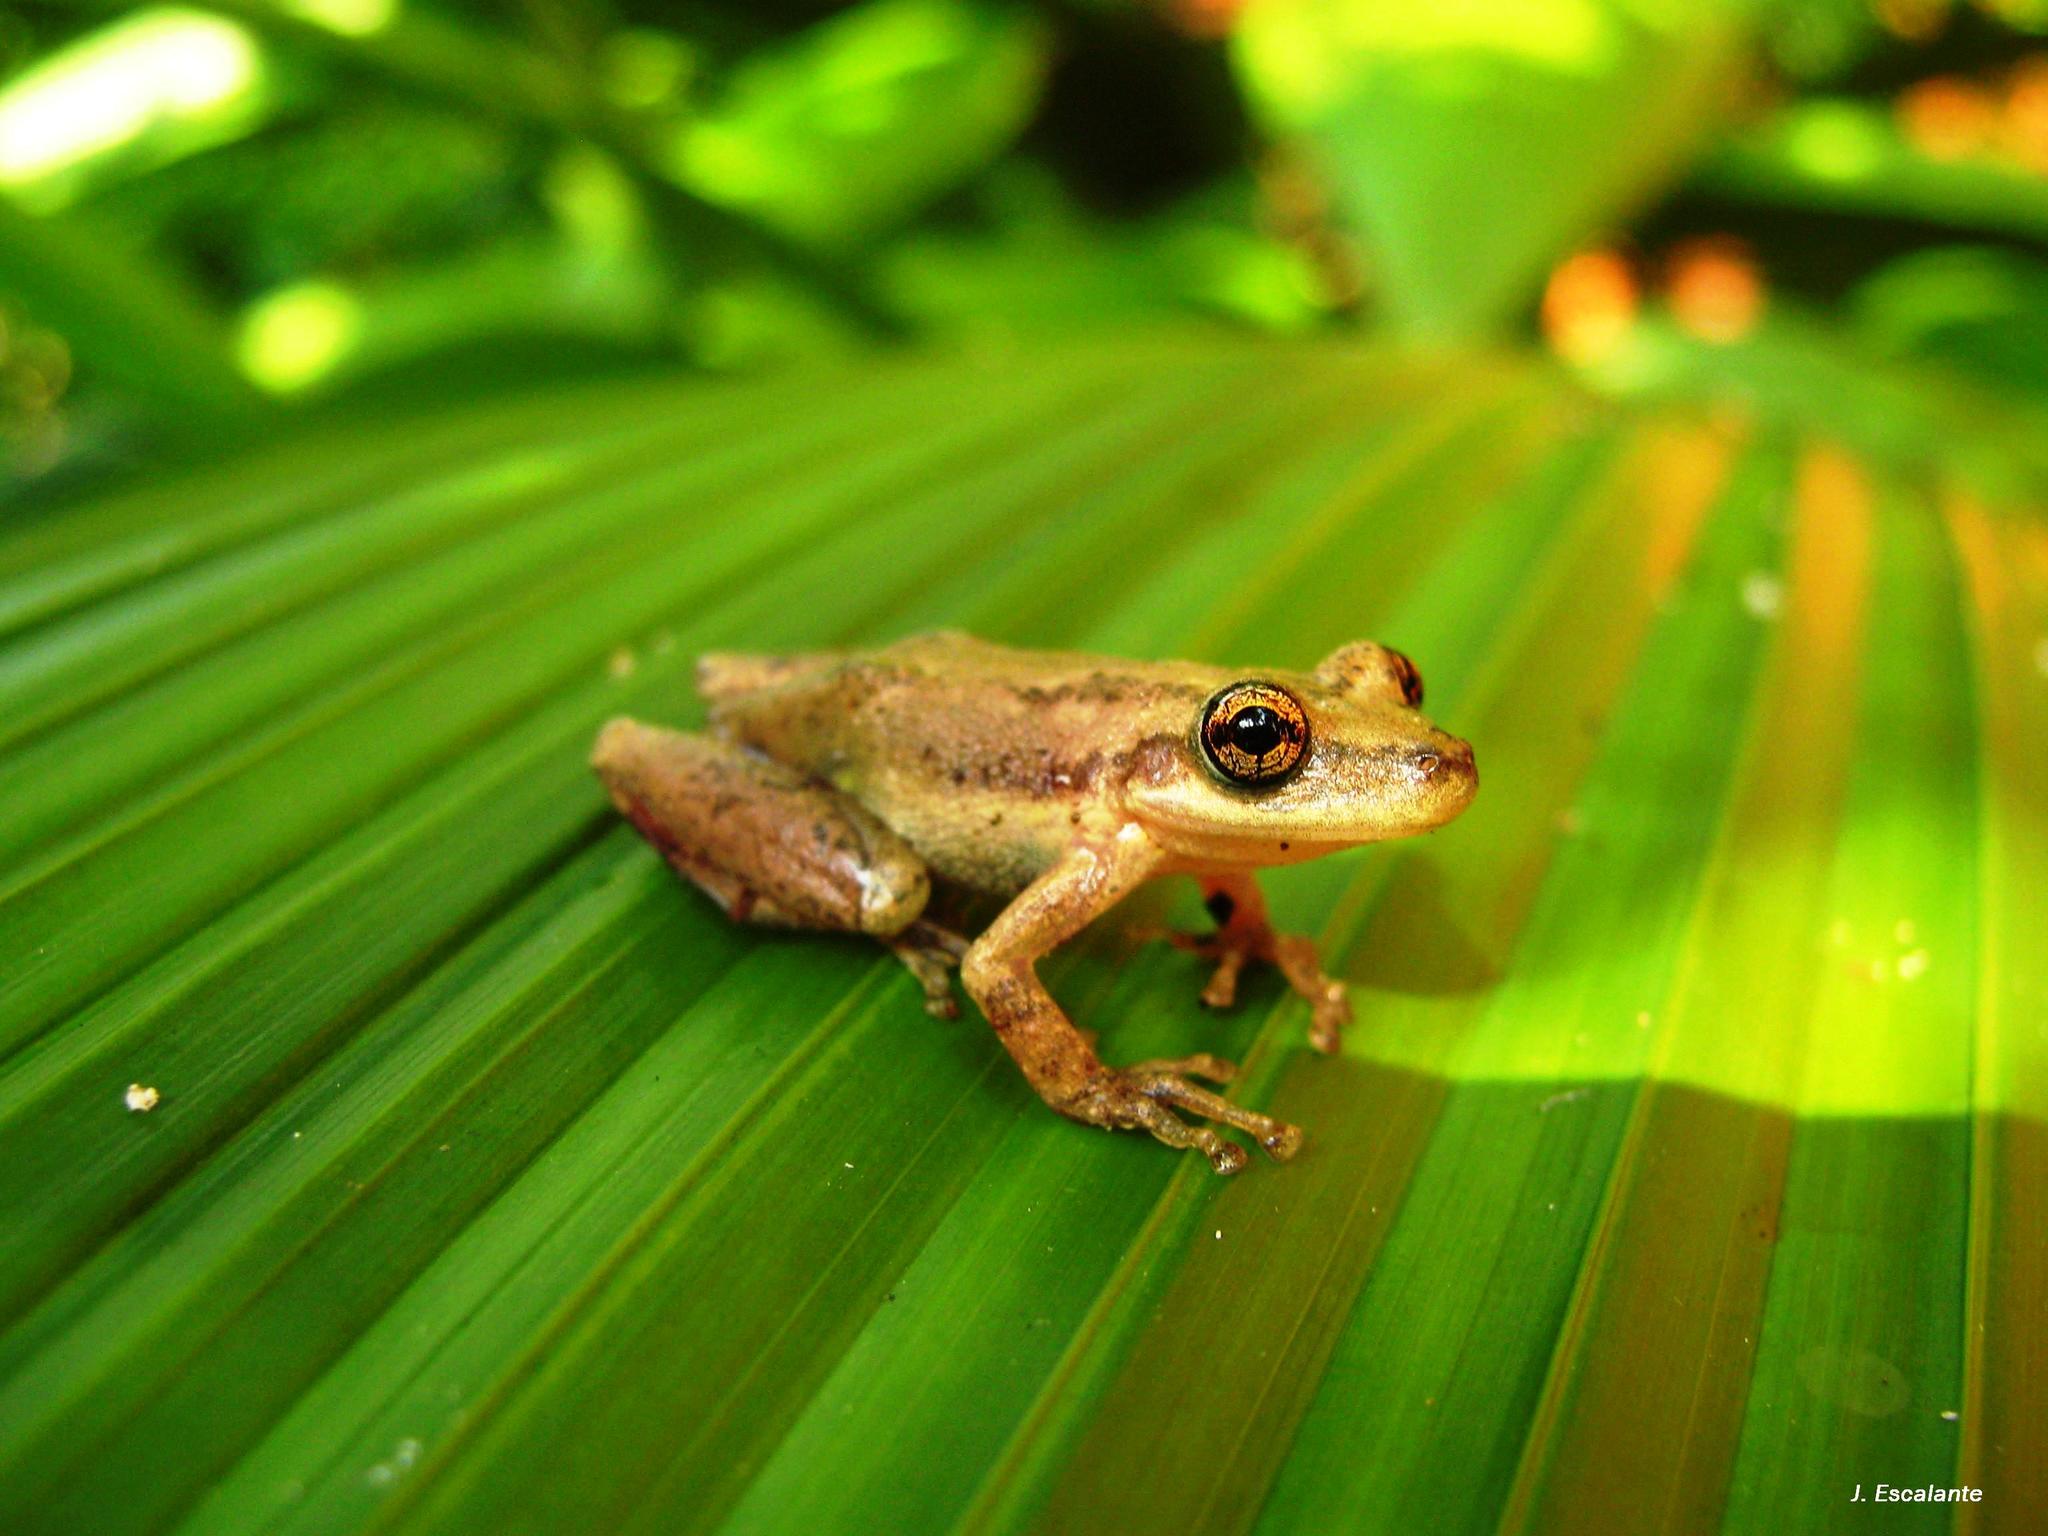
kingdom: Animalia
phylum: Chordata
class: Amphibia
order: Anura
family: Hylidae
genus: Scinax
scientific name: Scinax staufferi
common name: Stauffer's long-nosed treefrog
